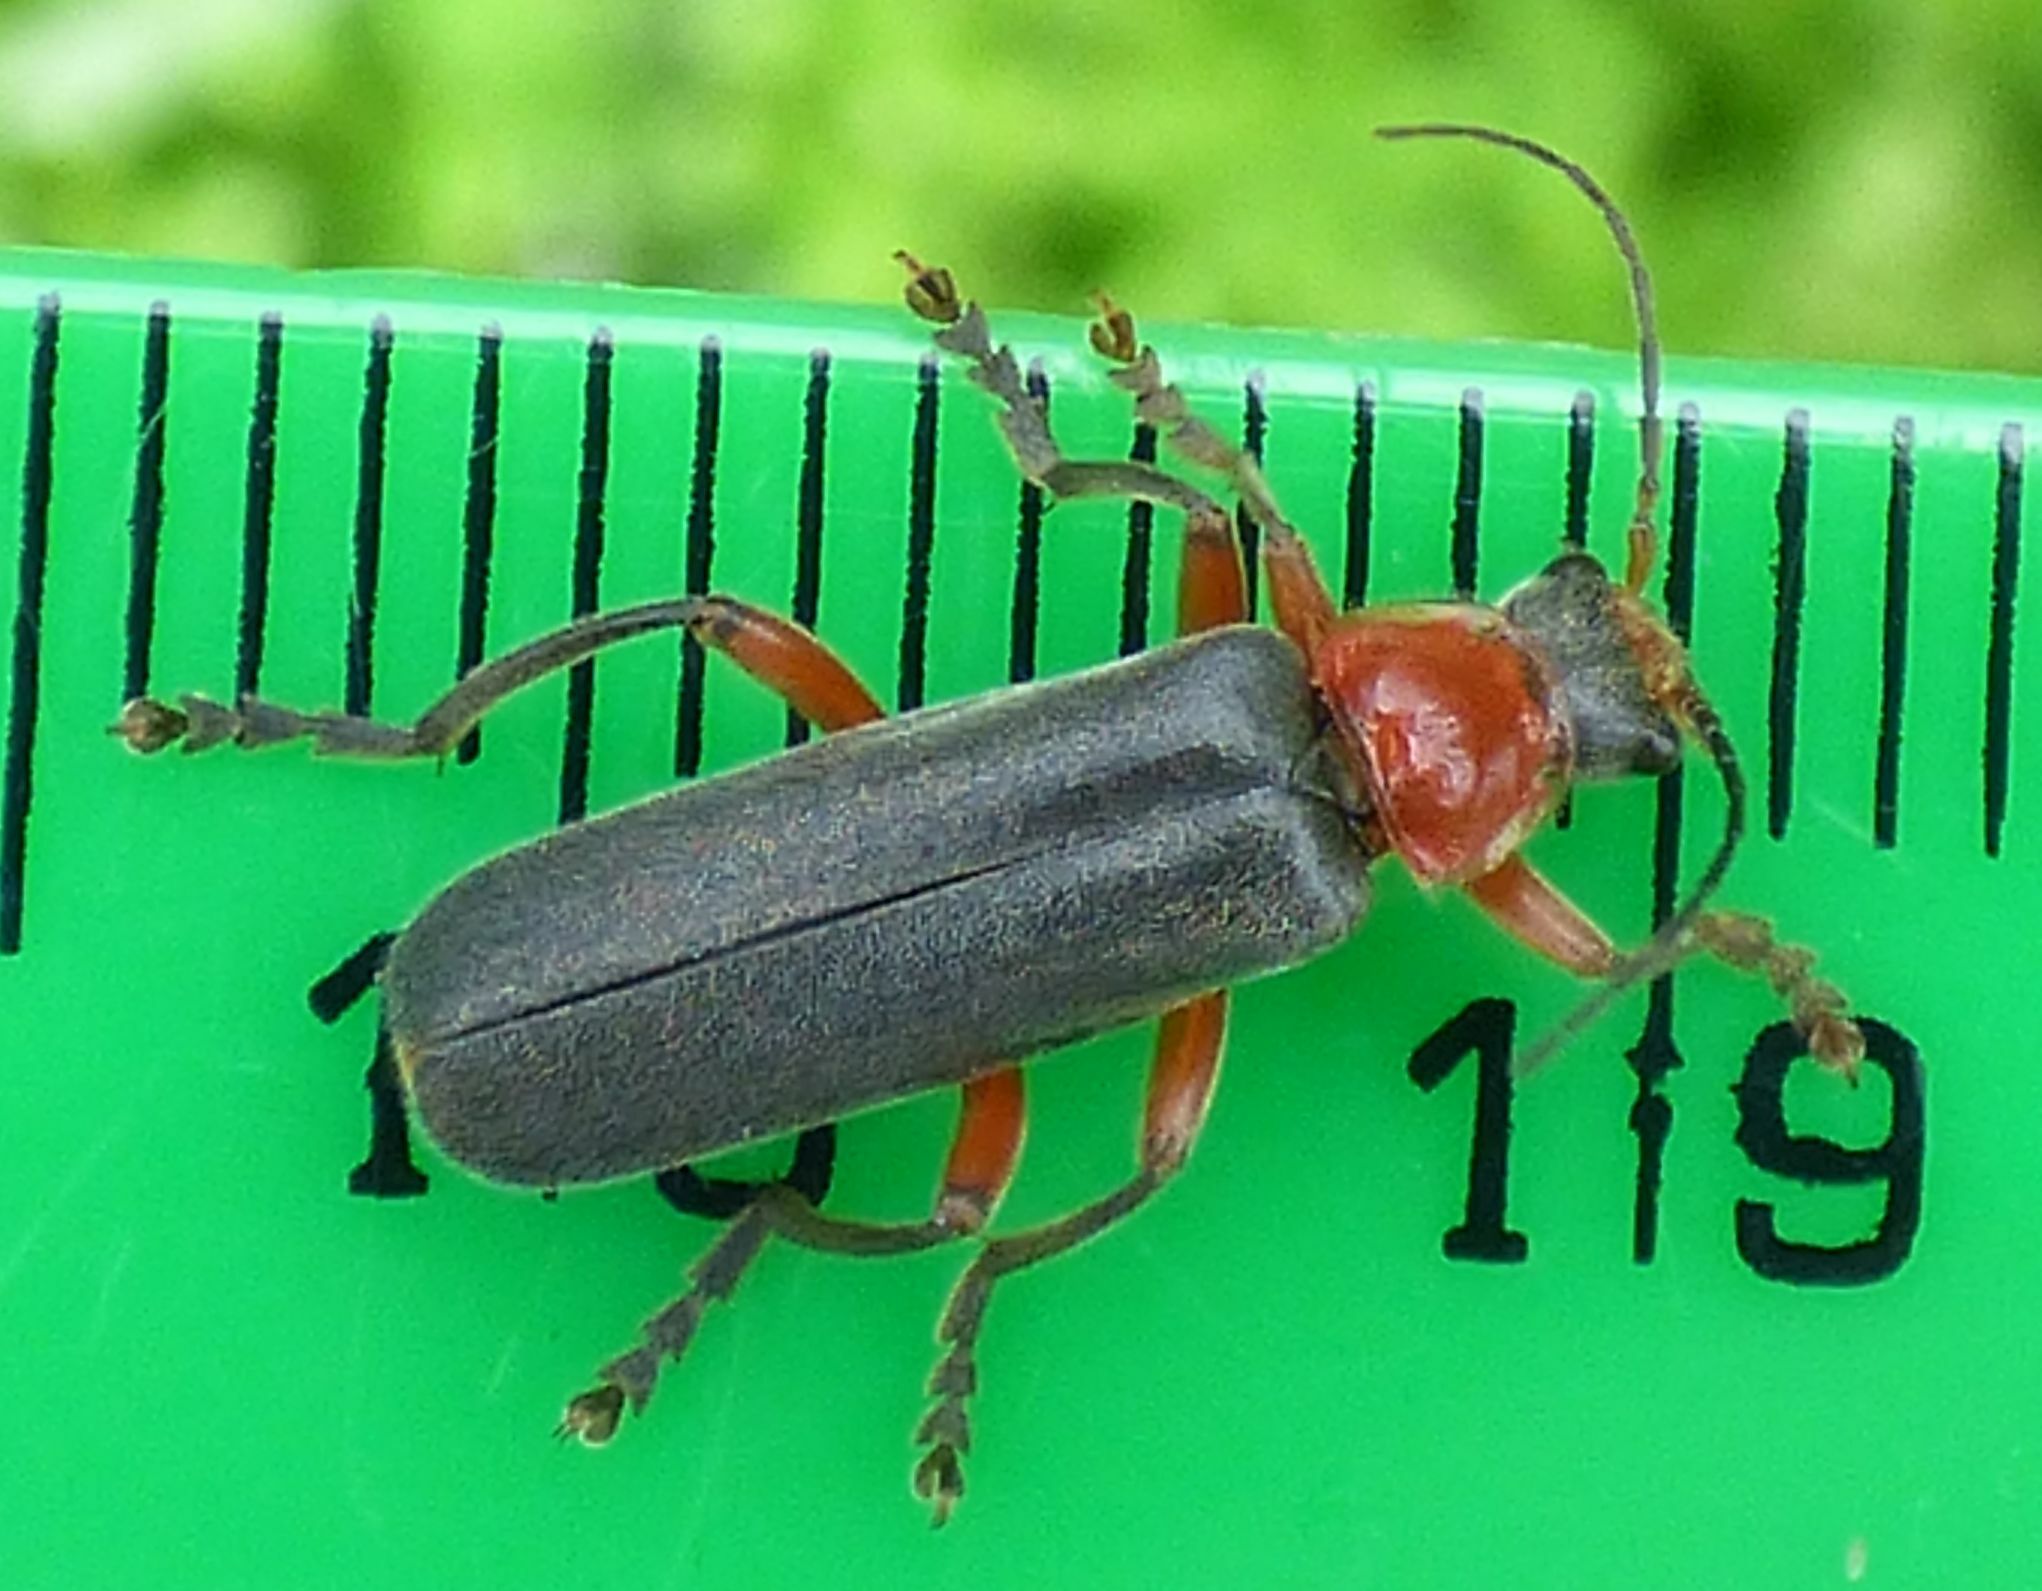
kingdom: Animalia
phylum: Arthropoda
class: Insecta
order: Coleoptera
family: Cantharidae
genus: Cantharis
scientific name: Cantharis pellucida
